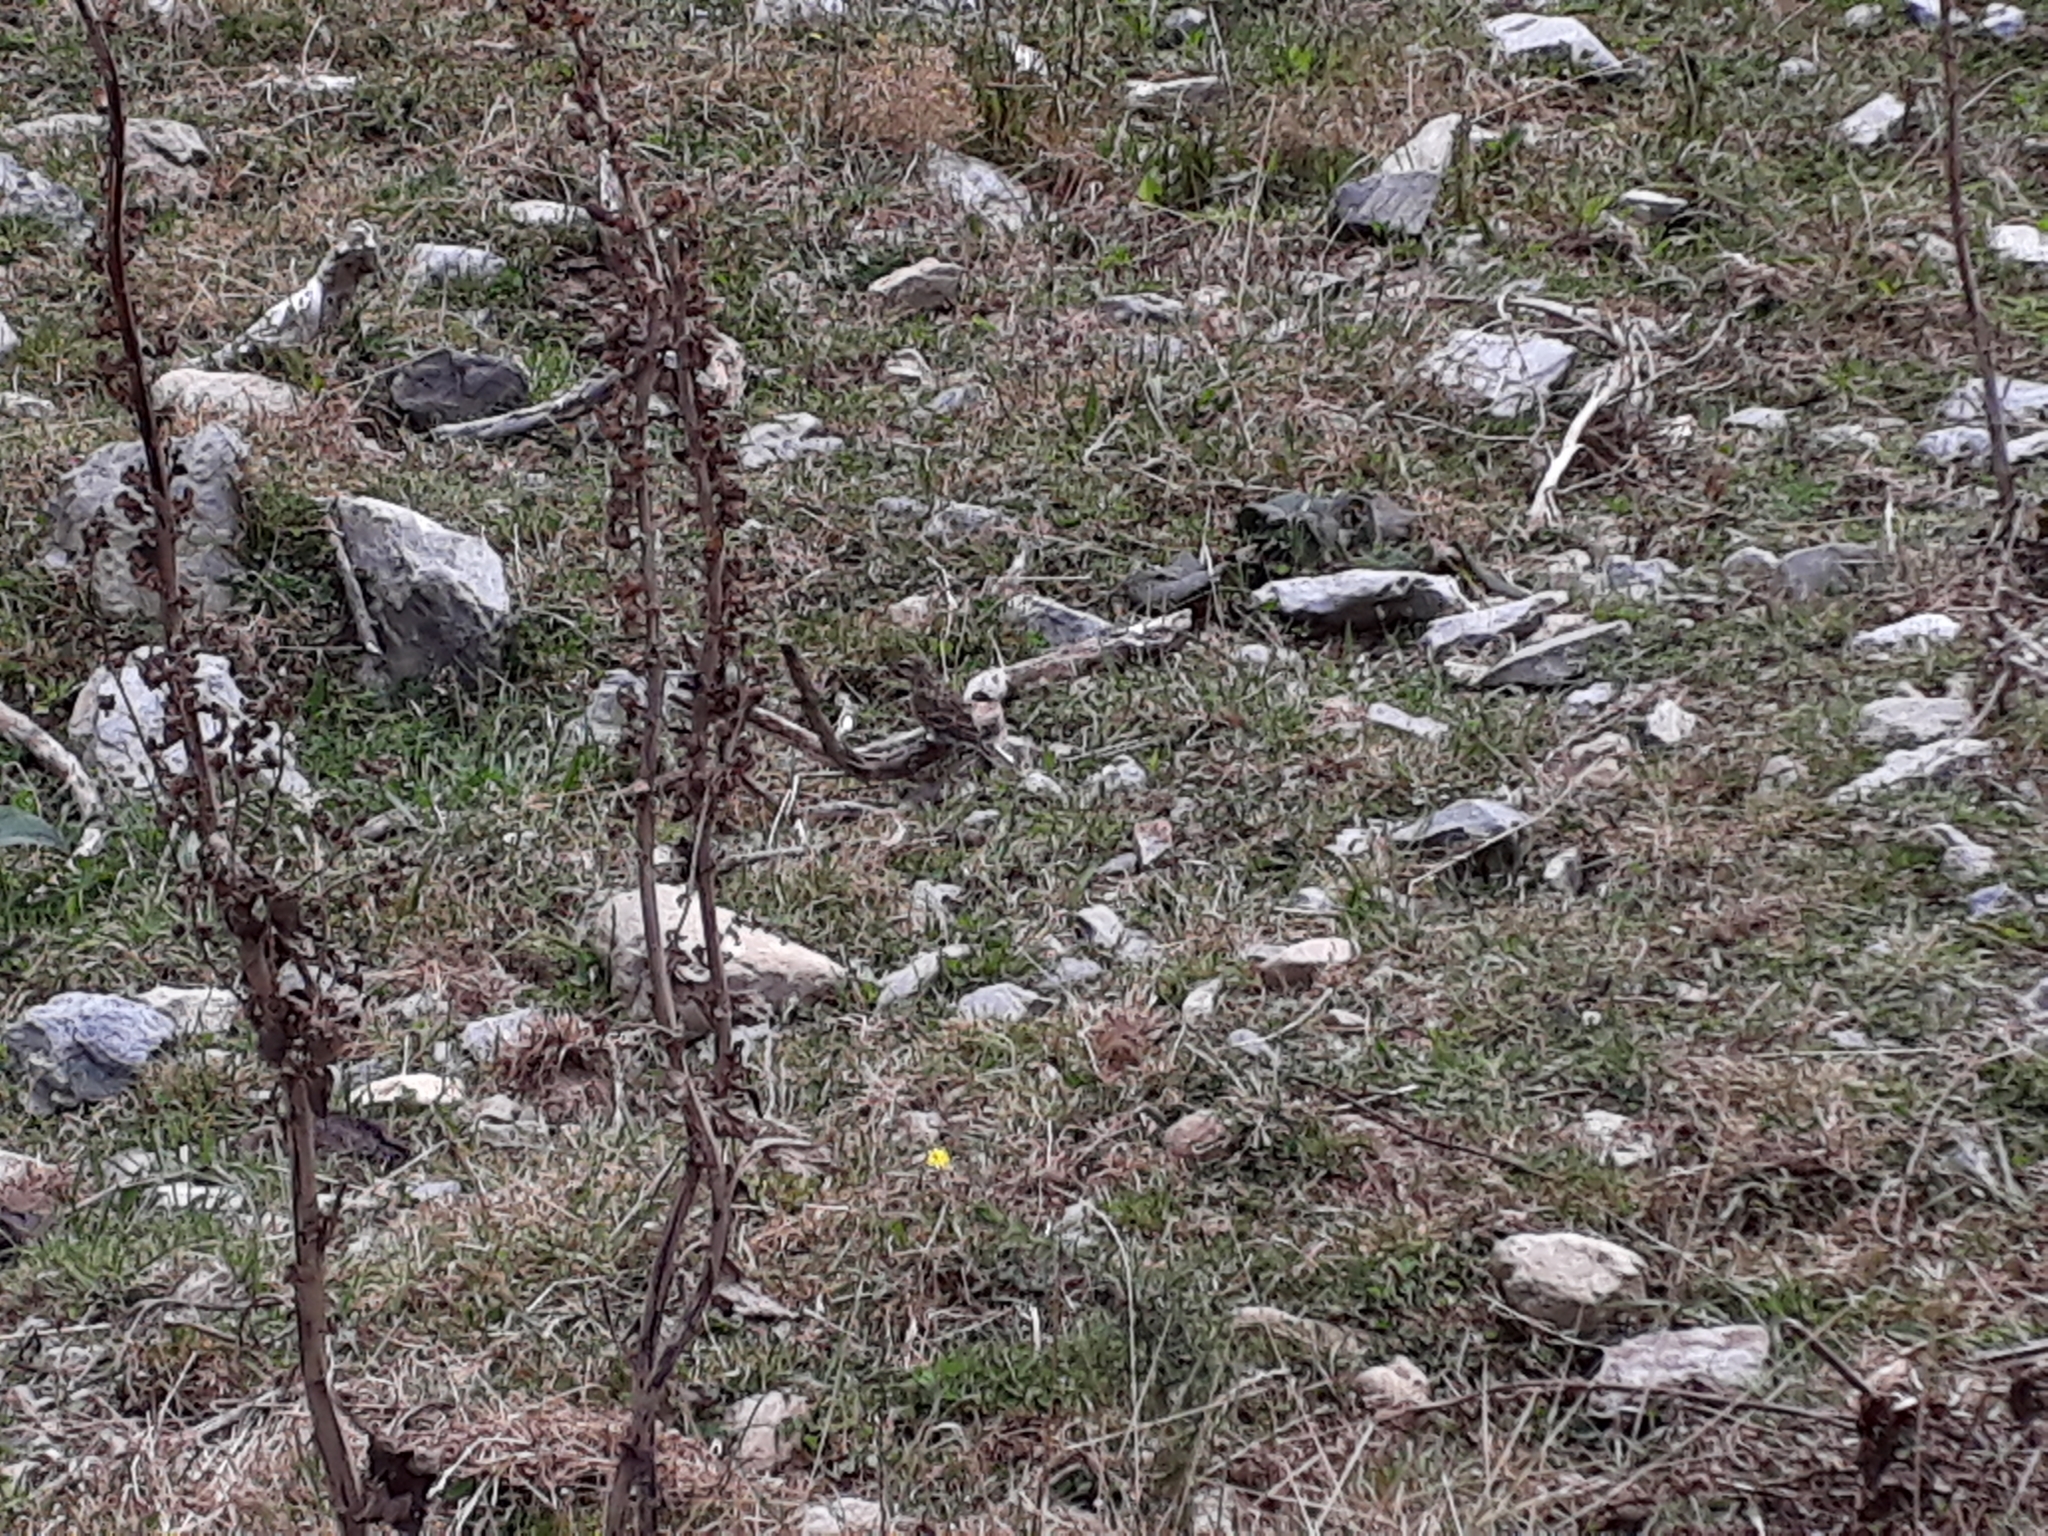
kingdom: Animalia
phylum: Chordata
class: Aves
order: Passeriformes
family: Motacillidae
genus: Anthus
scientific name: Anthus novaeseelandiae
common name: New zealand pipit
